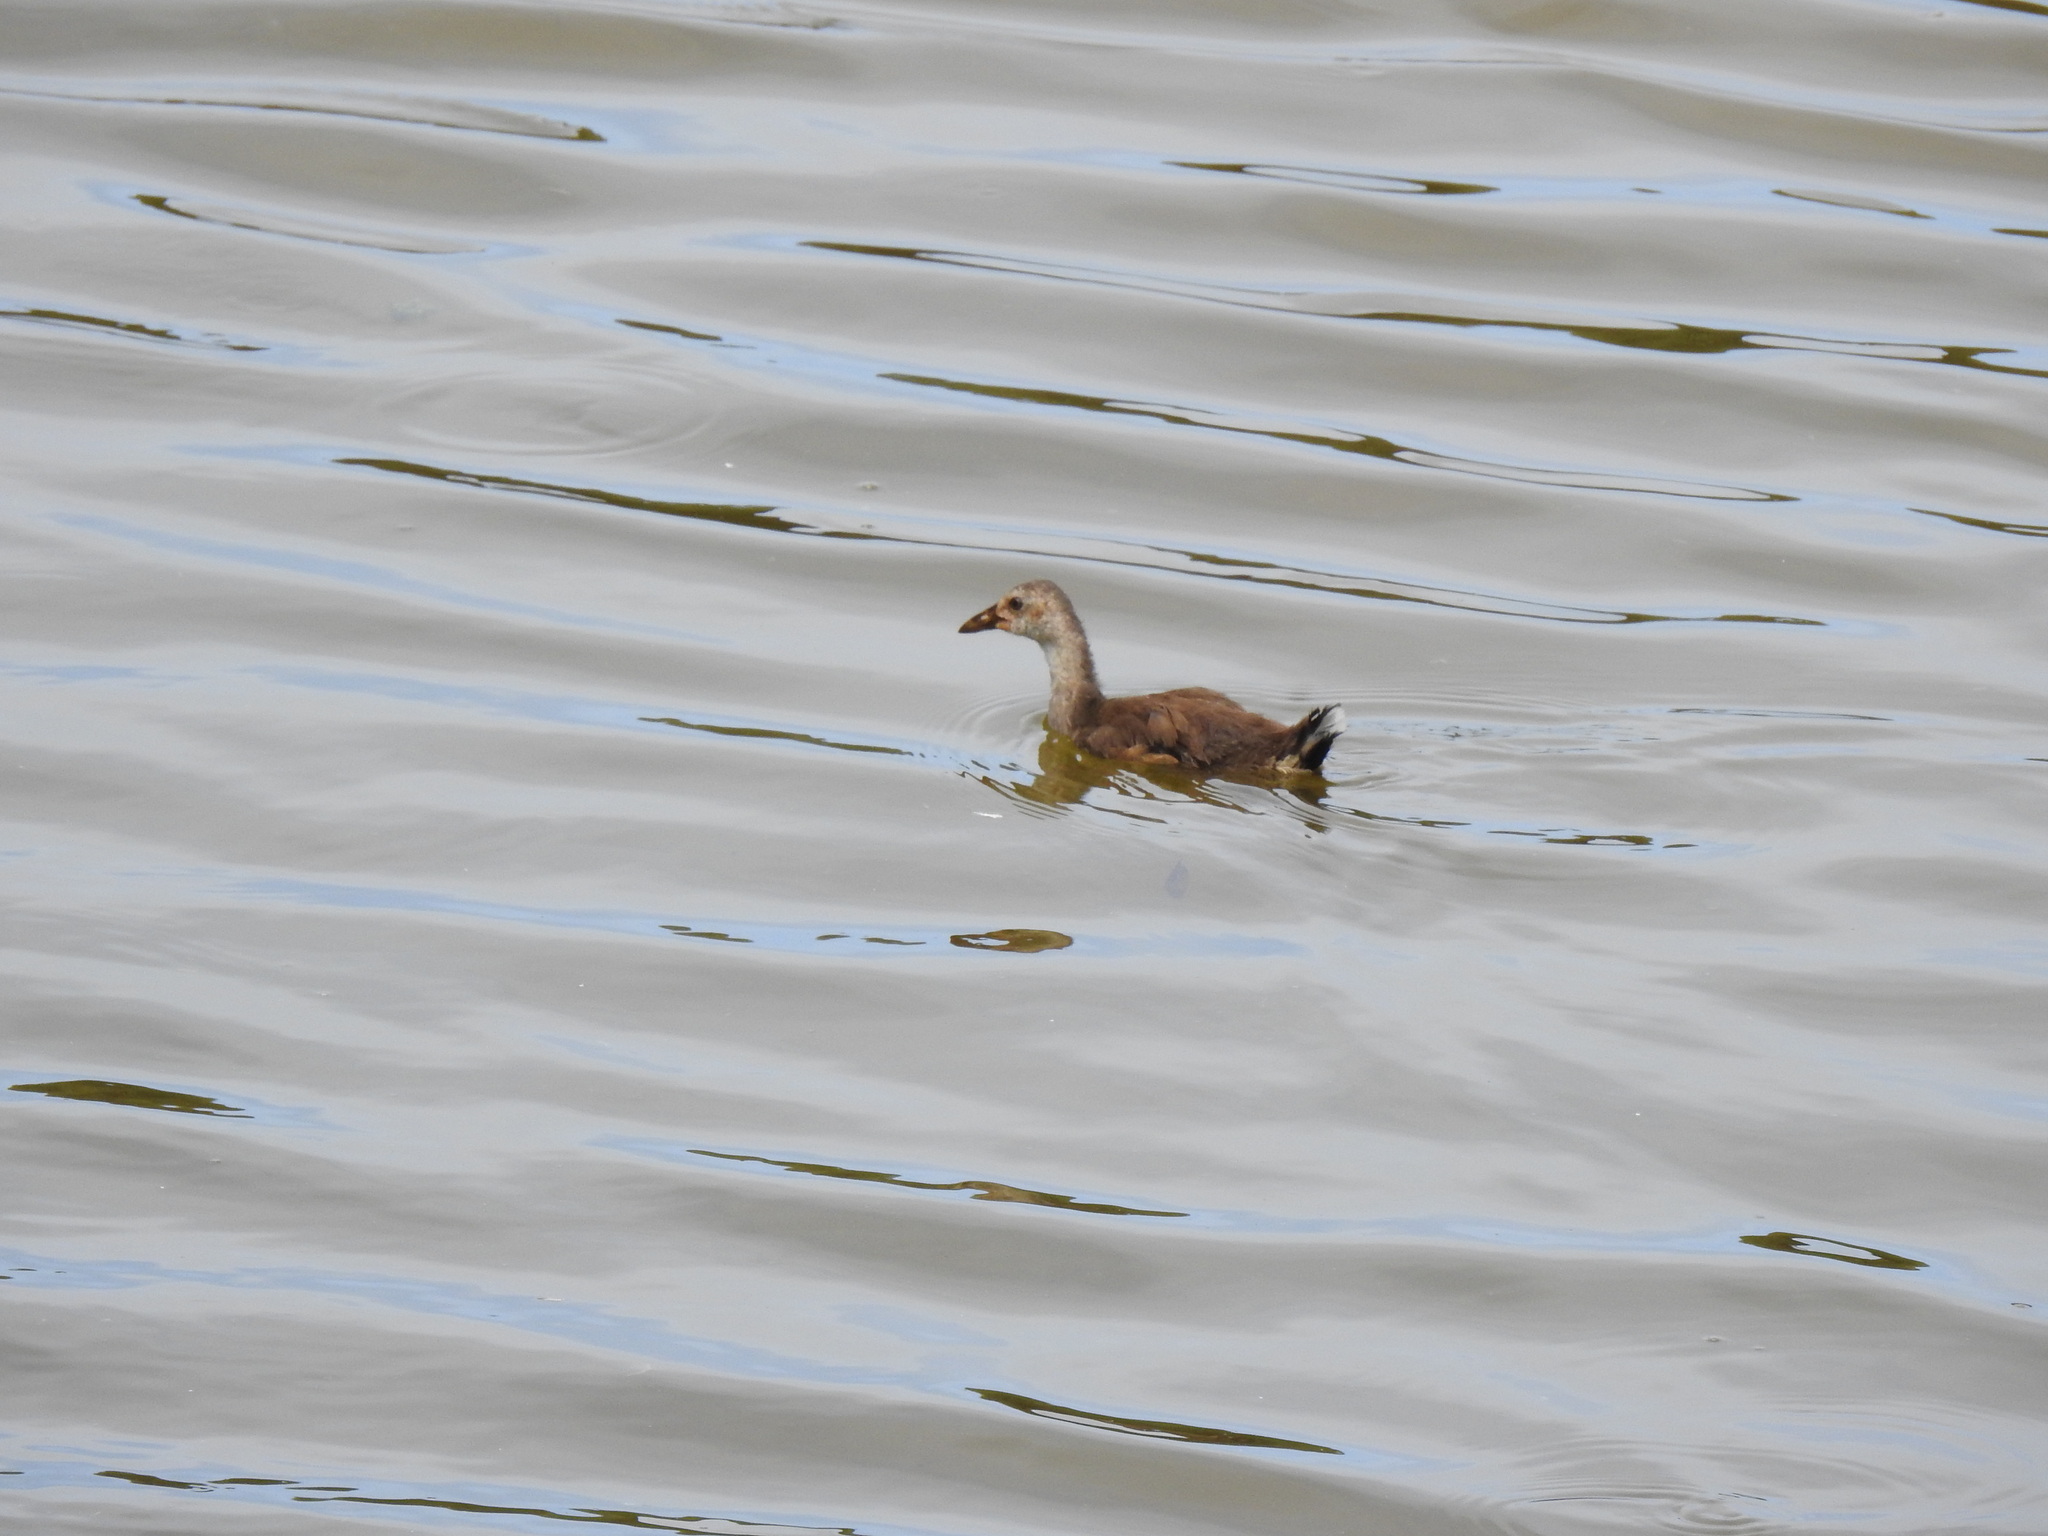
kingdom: Animalia
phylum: Chordata
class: Aves
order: Gruiformes
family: Rallidae
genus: Gallinula
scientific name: Gallinula chloropus
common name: Common moorhen
